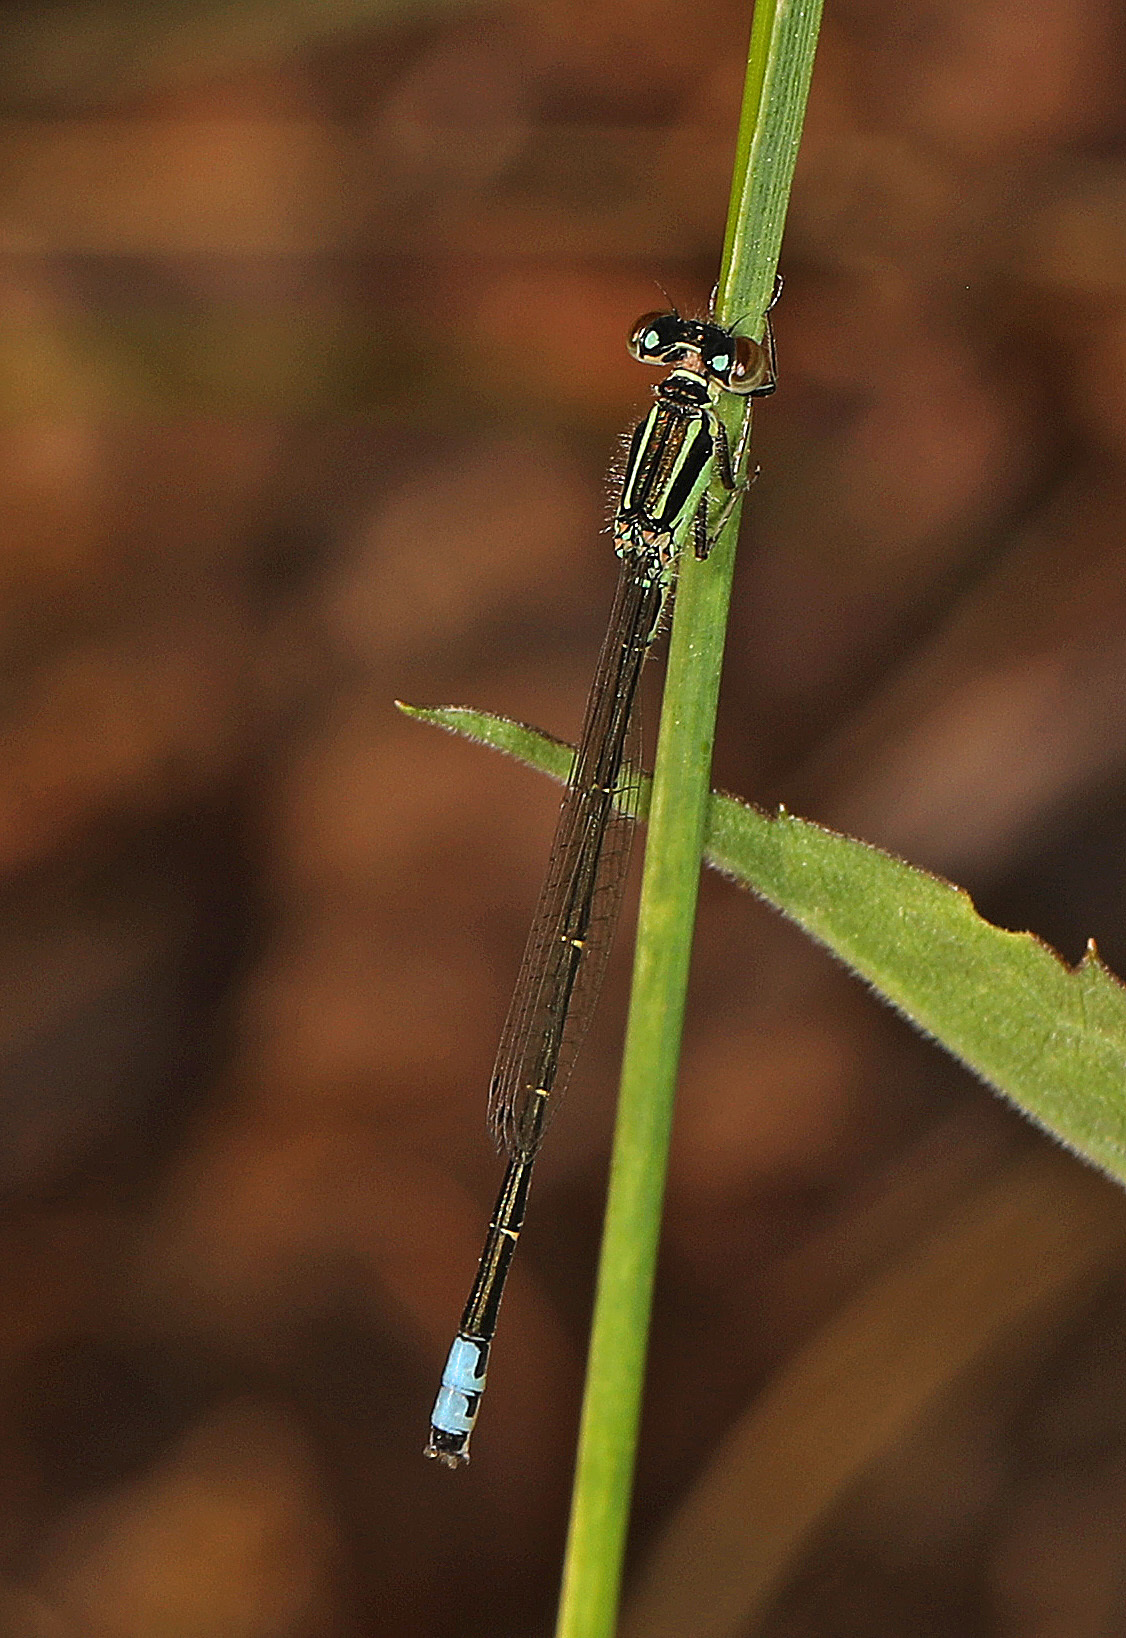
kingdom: Animalia
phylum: Arthropoda
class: Insecta
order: Odonata
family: Coenagrionidae
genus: Ischnura
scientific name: Ischnura verticalis
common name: Eastern forktail
